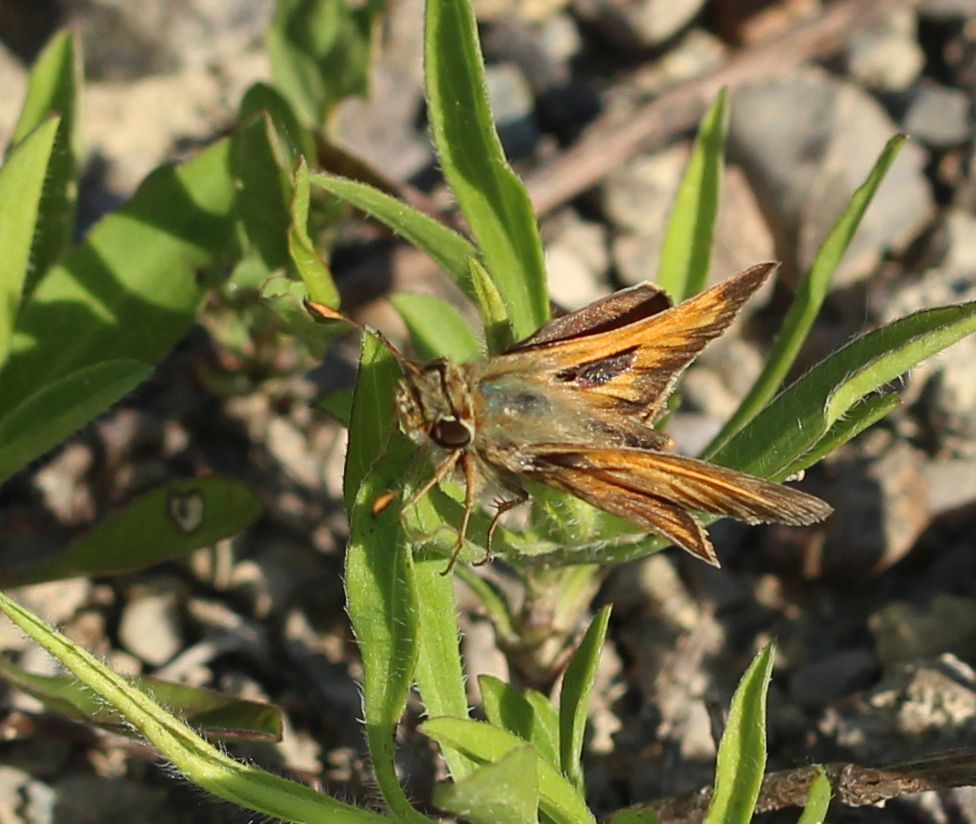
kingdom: Animalia
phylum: Arthropoda
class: Insecta
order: Lepidoptera
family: Hesperiidae
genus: Atalopedes
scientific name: Atalopedes
